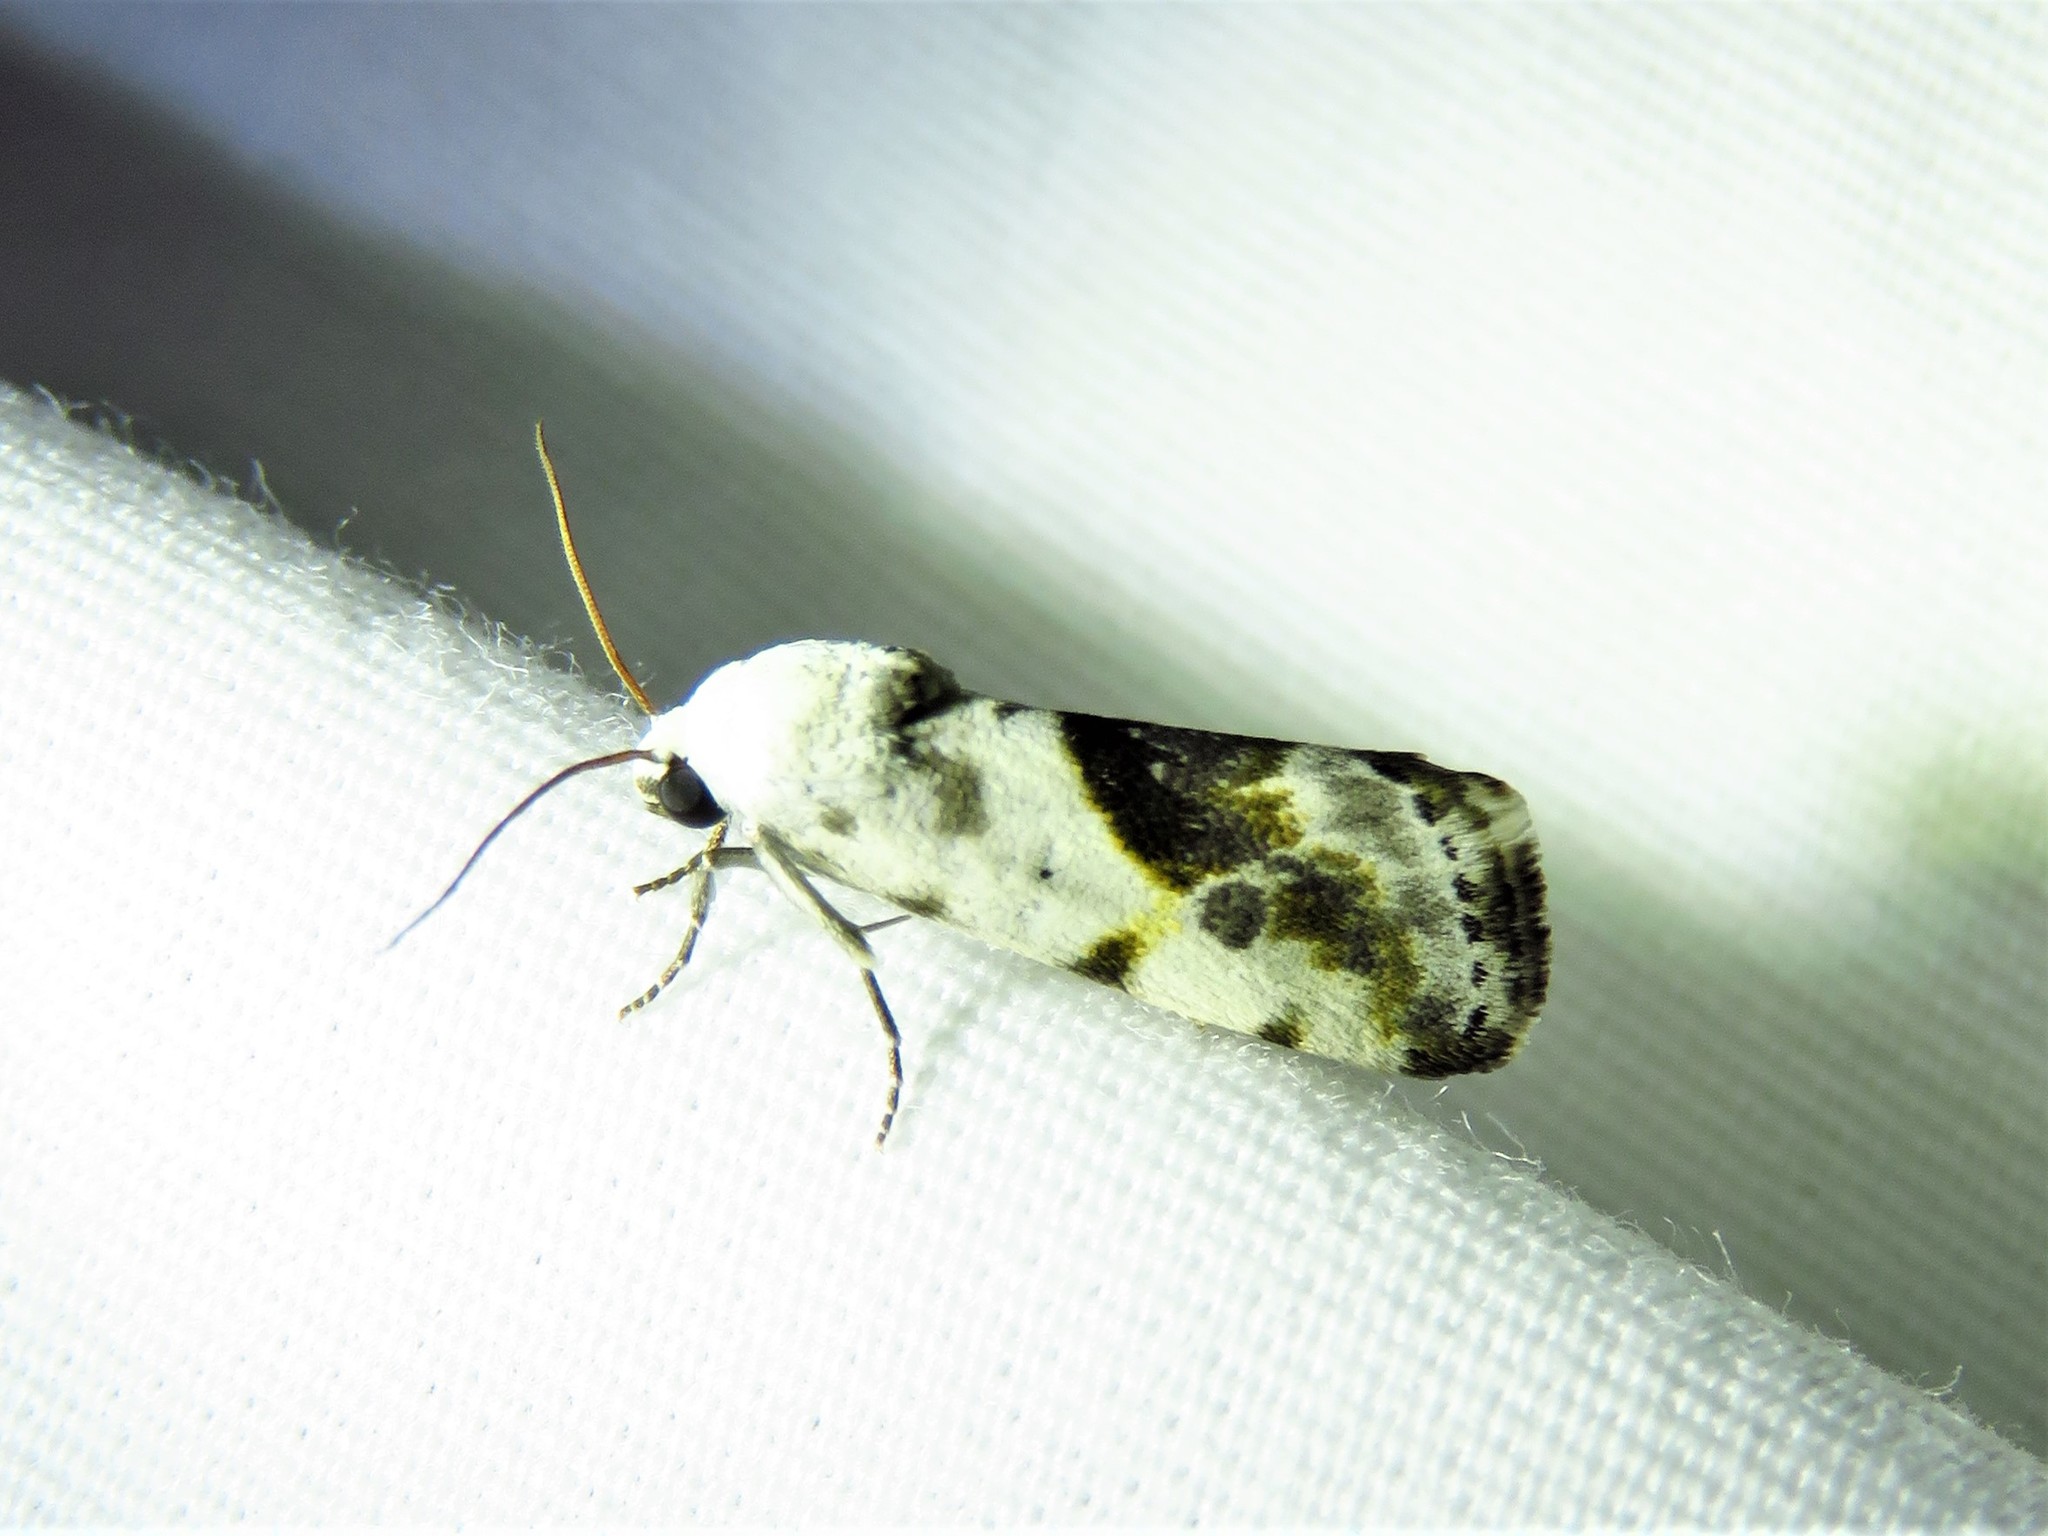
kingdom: Animalia
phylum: Arthropoda
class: Insecta
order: Lepidoptera
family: Noctuidae
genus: Acontia
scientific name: Acontia candefacta
